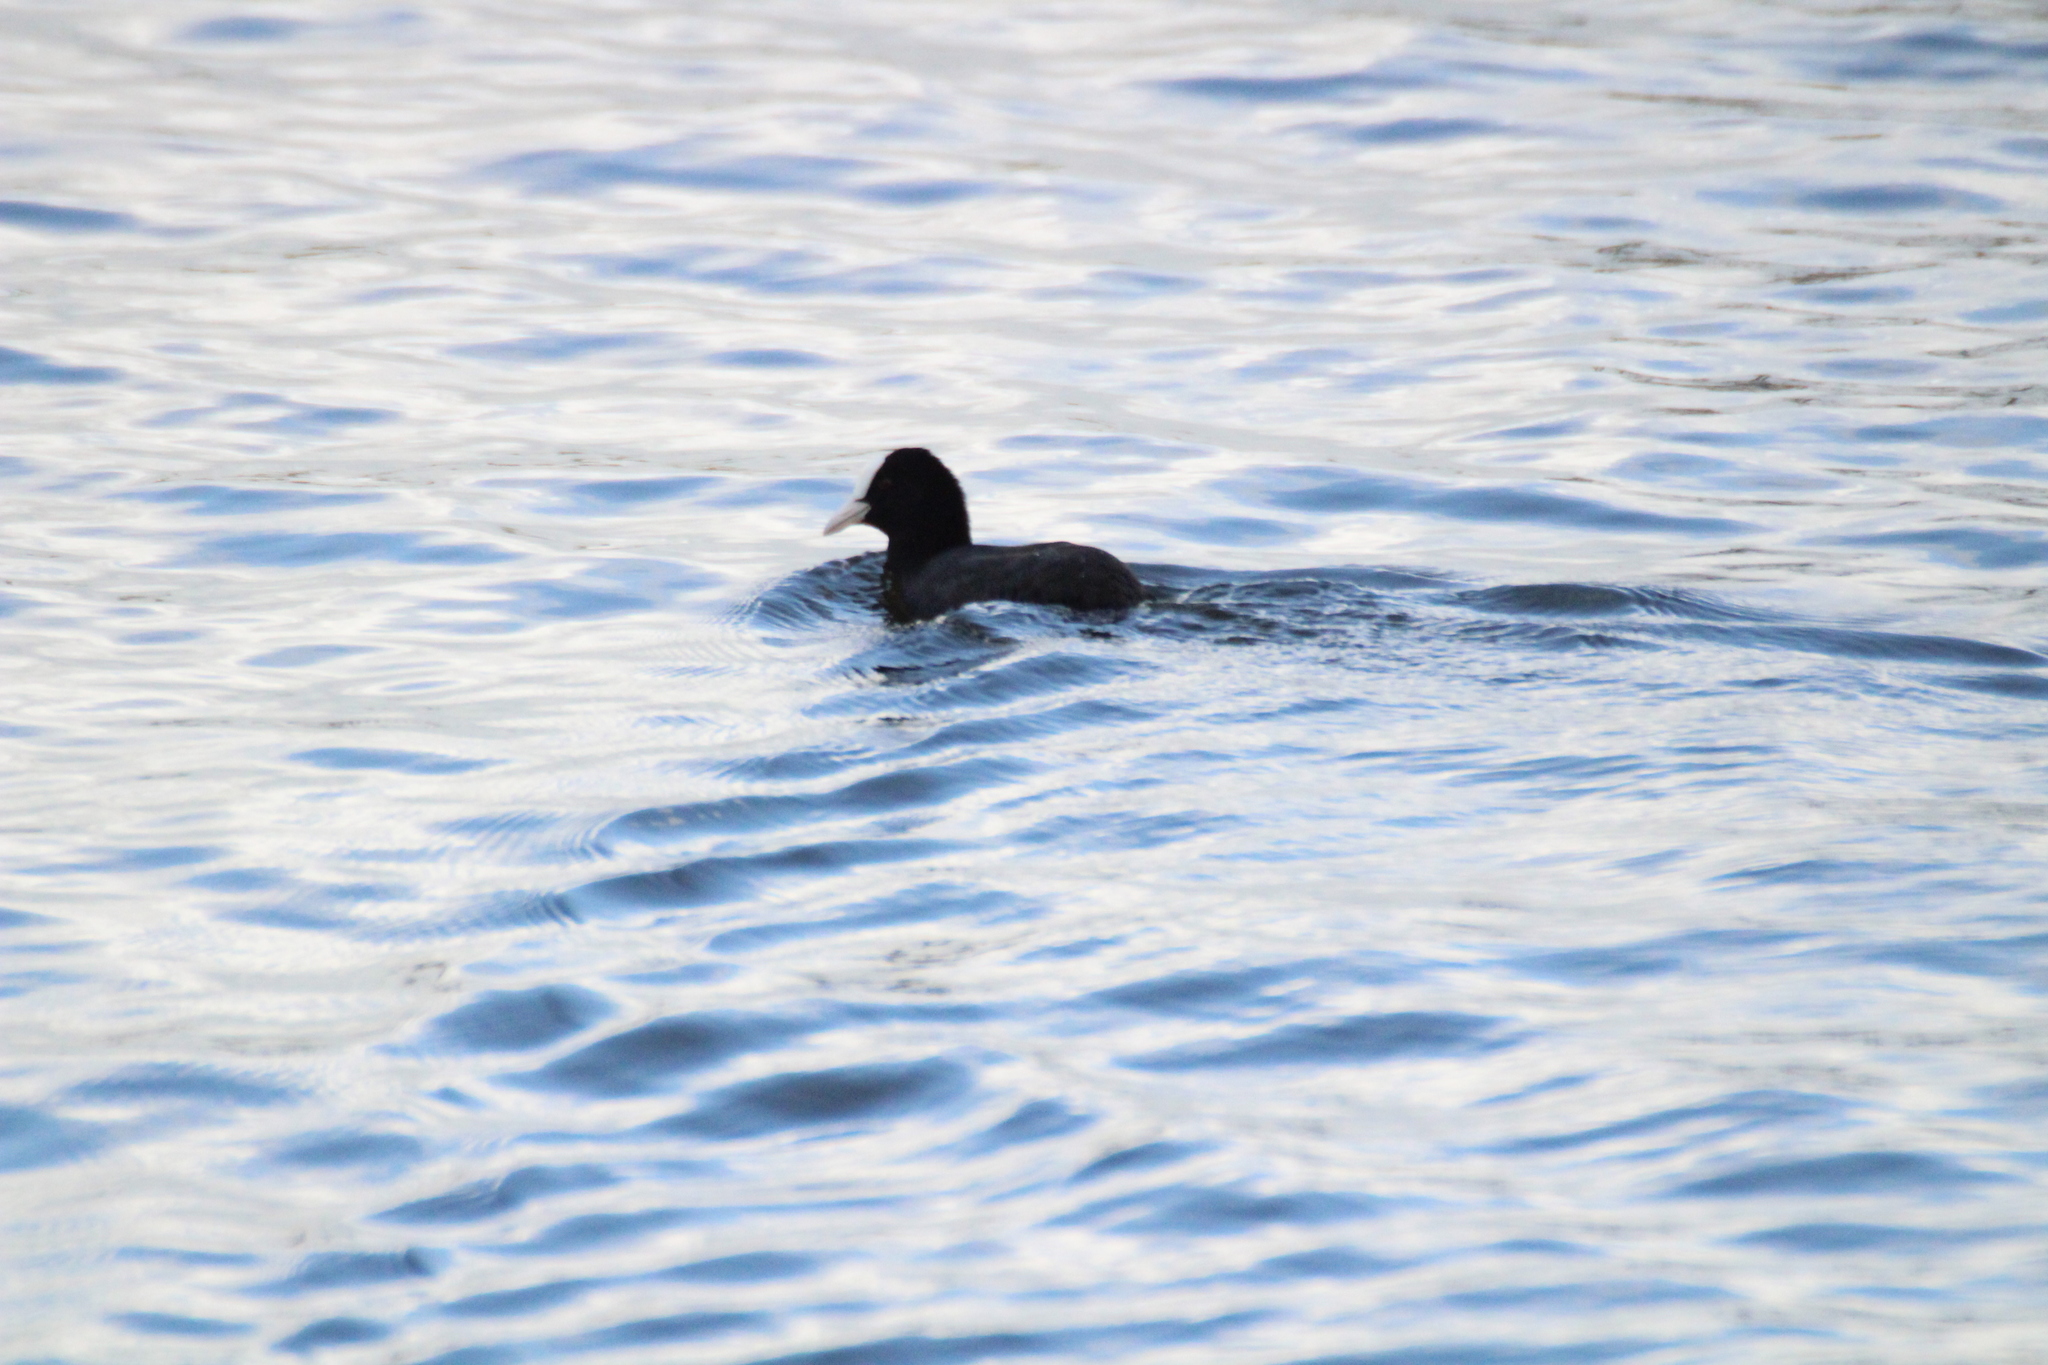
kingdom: Animalia
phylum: Chordata
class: Aves
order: Gruiformes
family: Rallidae
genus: Fulica
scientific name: Fulica atra
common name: Eurasian coot
